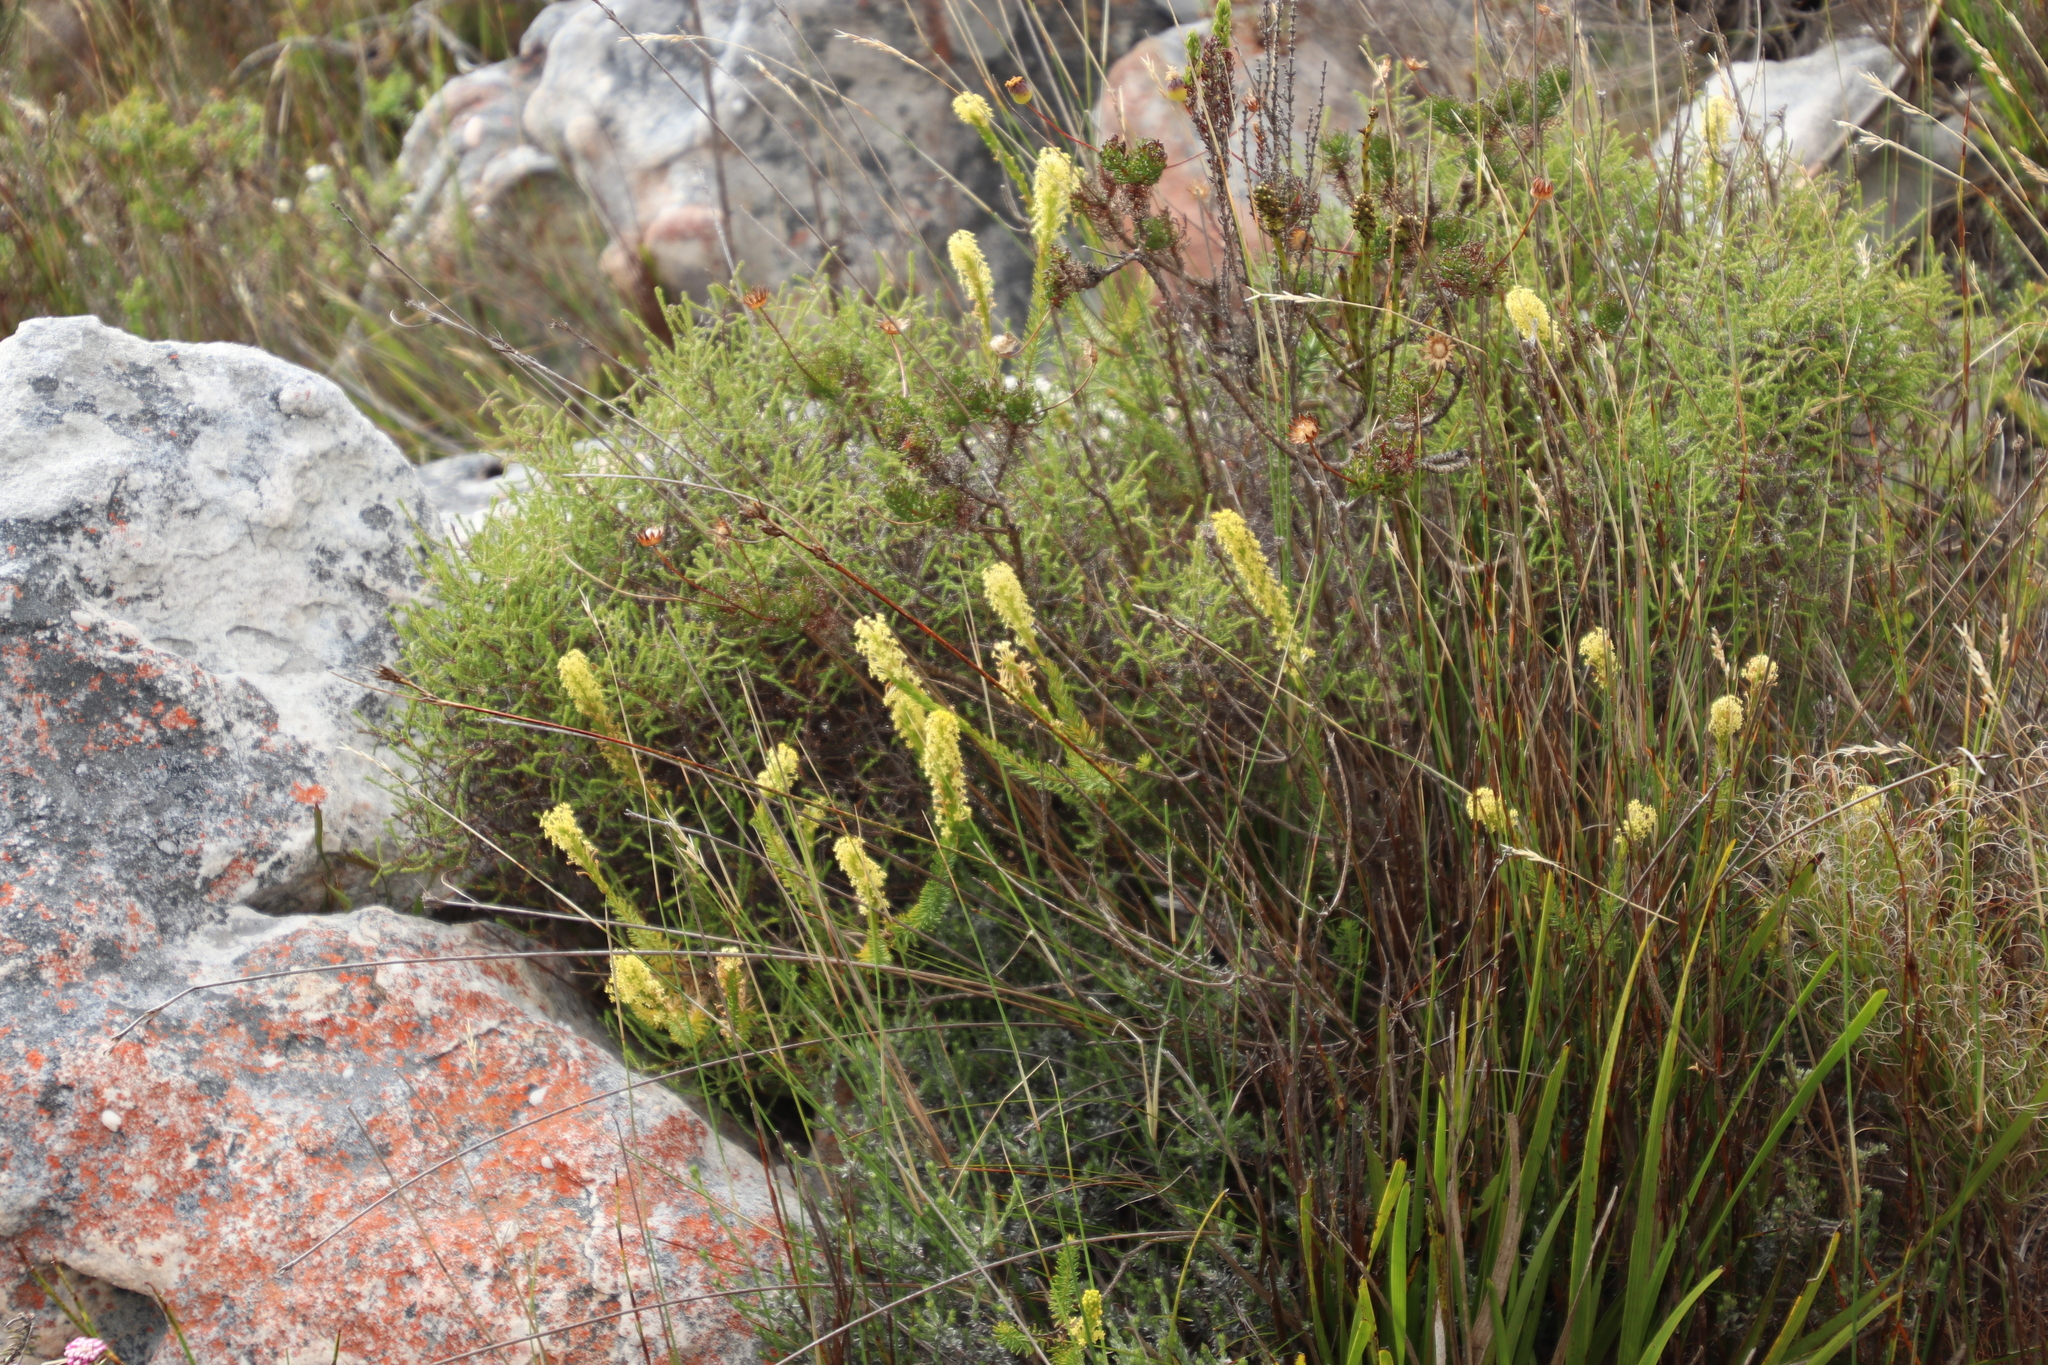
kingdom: Plantae
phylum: Tracheophyta
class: Magnoliopsida
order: Lamiales
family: Scrophulariaceae
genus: Microdon
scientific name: Microdon dubius
